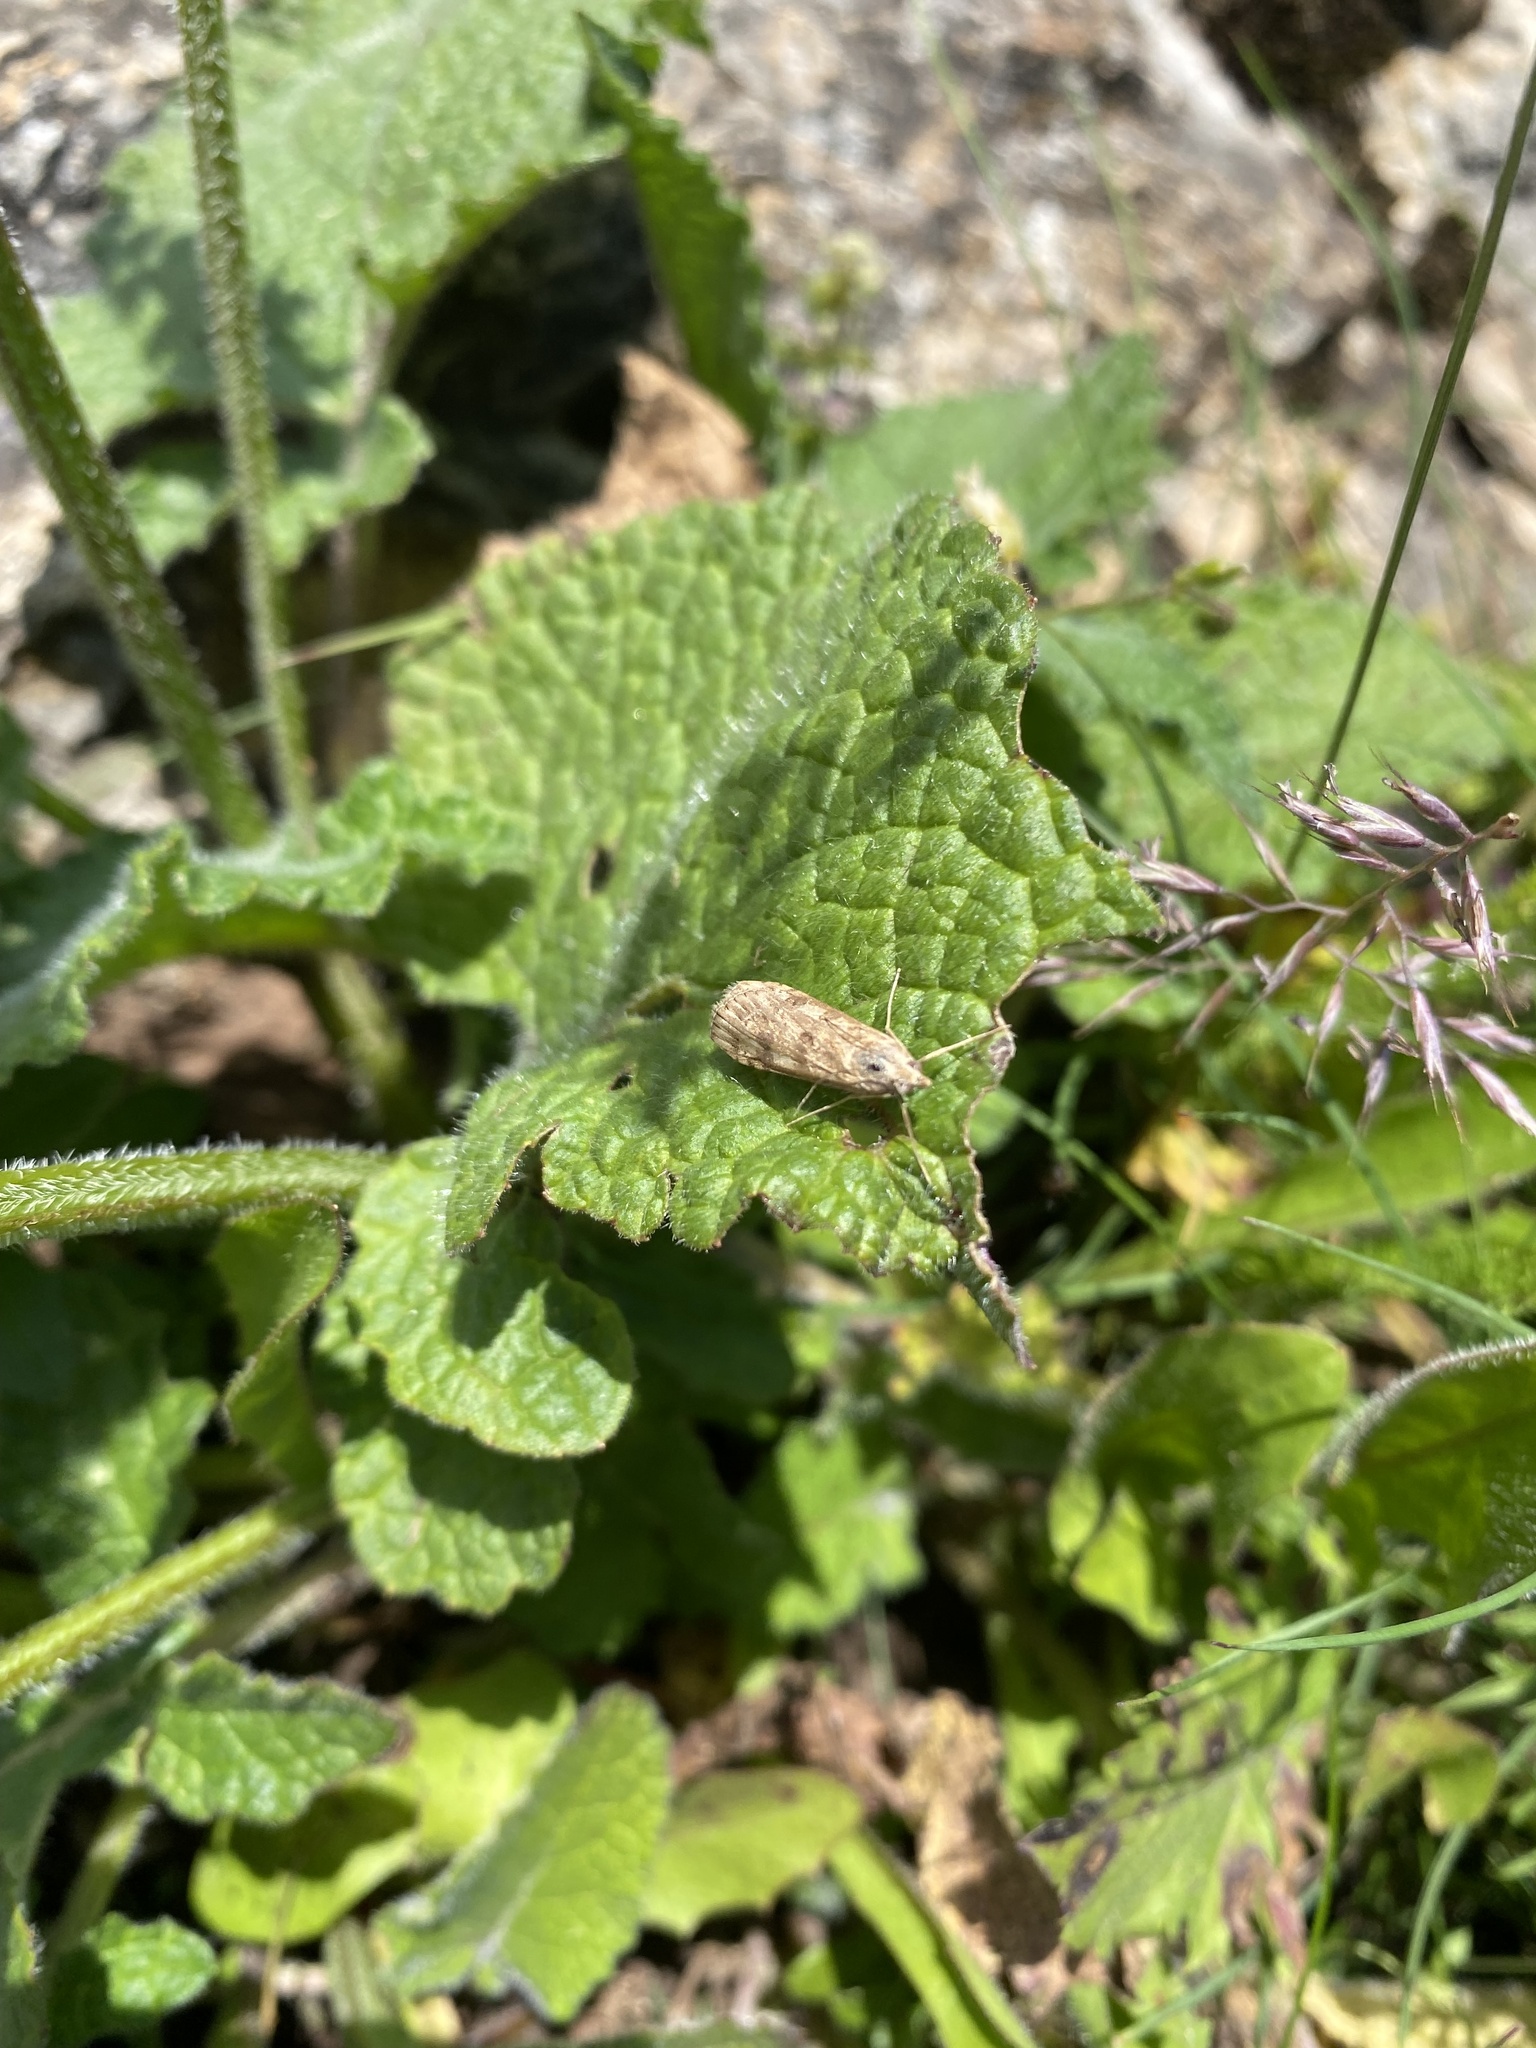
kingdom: Animalia
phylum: Arthropoda
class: Insecta
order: Lepidoptera
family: Crambidae
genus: Nomophila
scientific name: Nomophila noctuella
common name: Rush veneer
